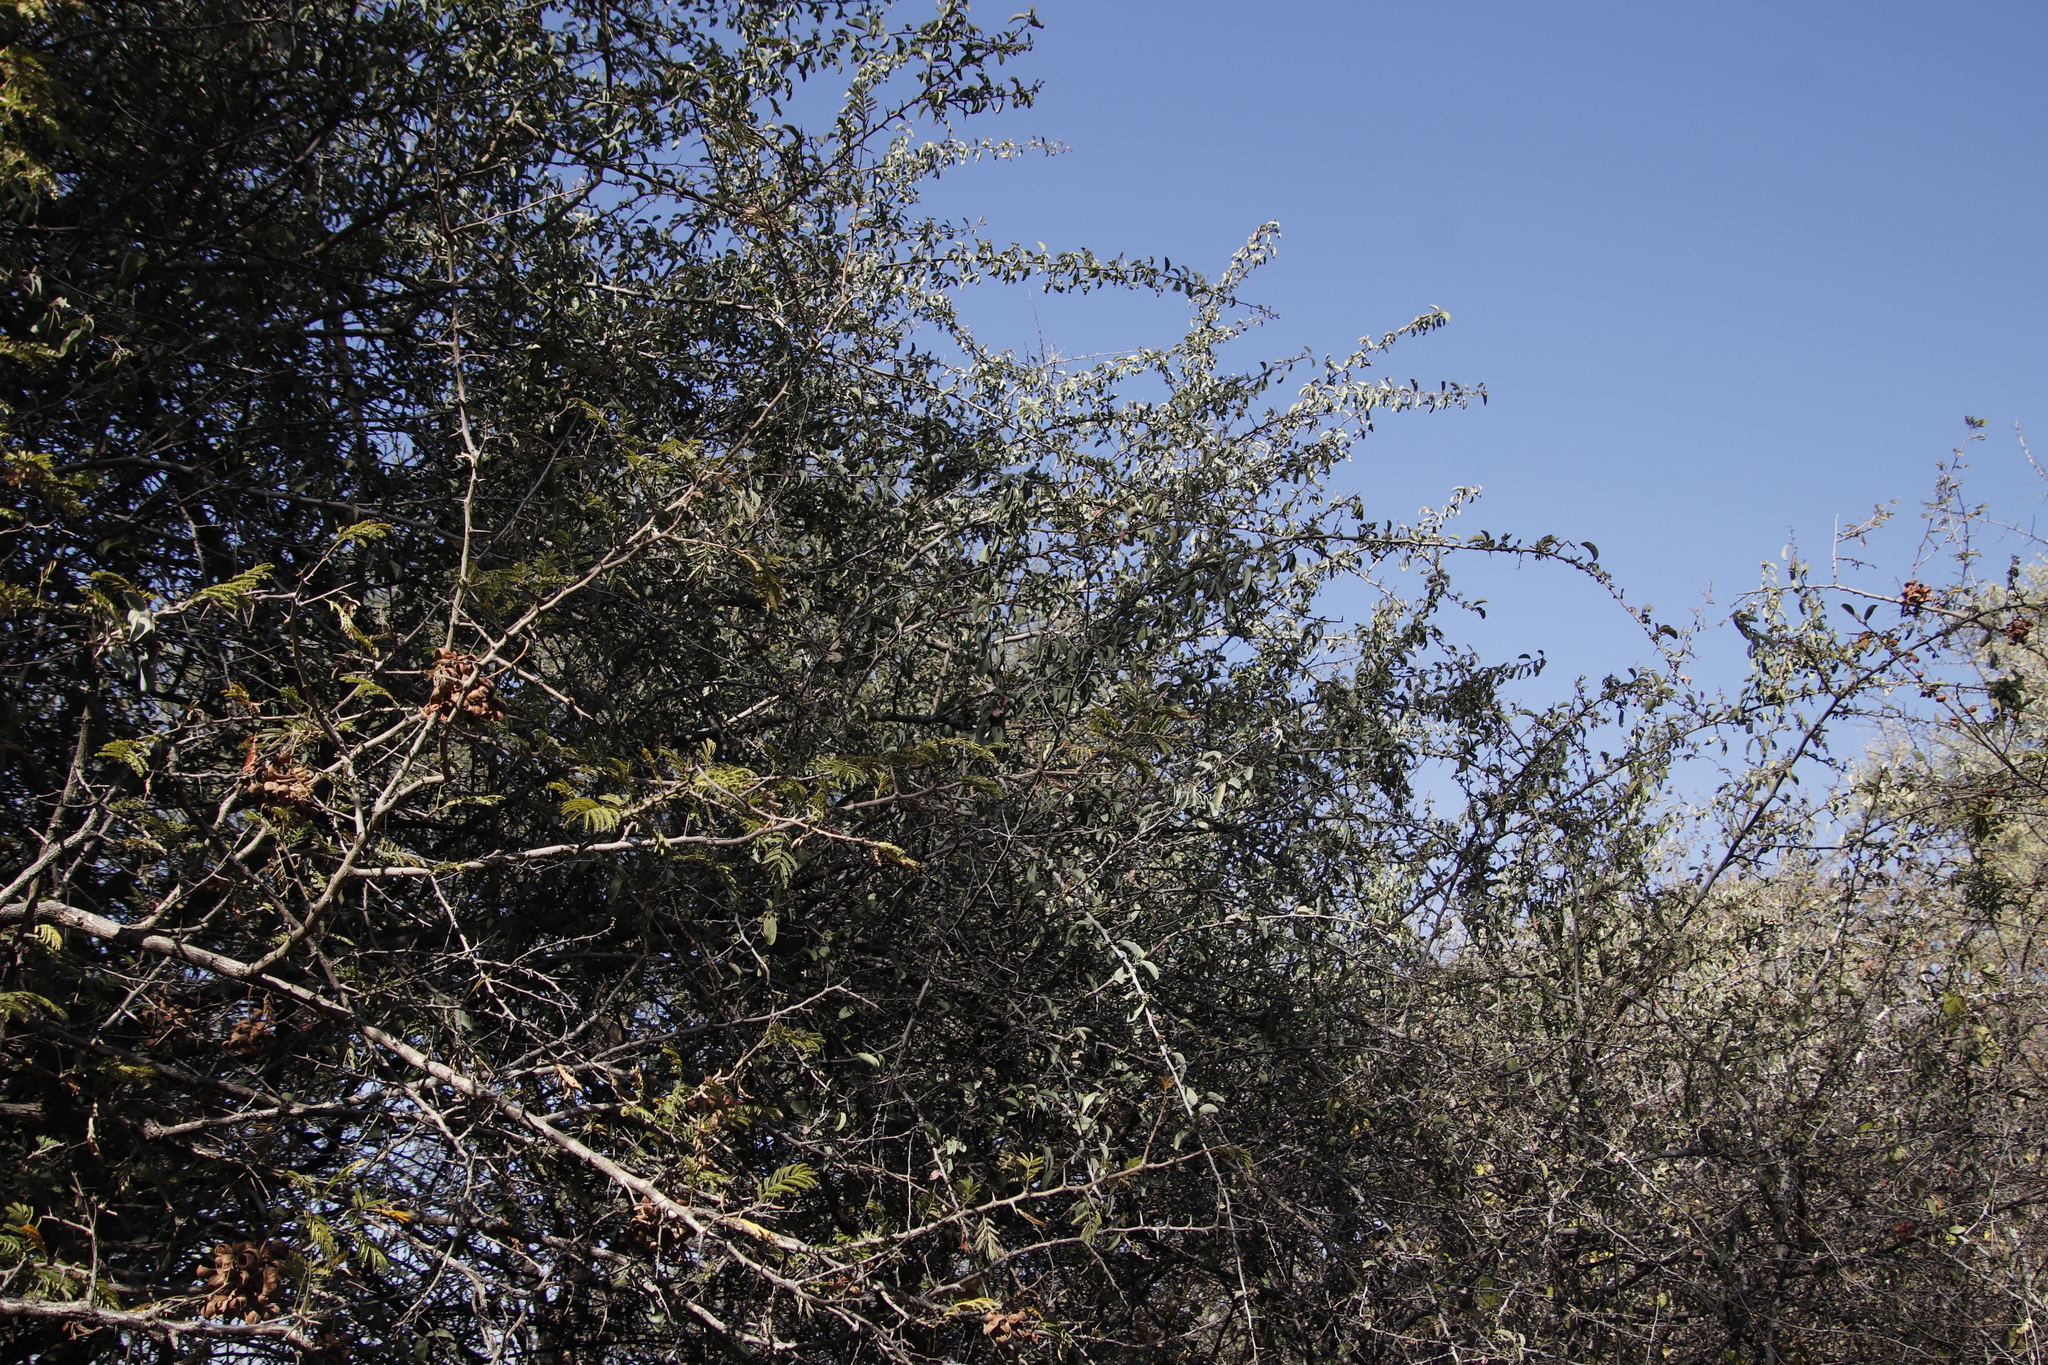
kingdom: Plantae
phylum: Tracheophyta
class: Magnoliopsida
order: Myrtales
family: Combretaceae
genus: Terminalia
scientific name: Terminalia prunioides
